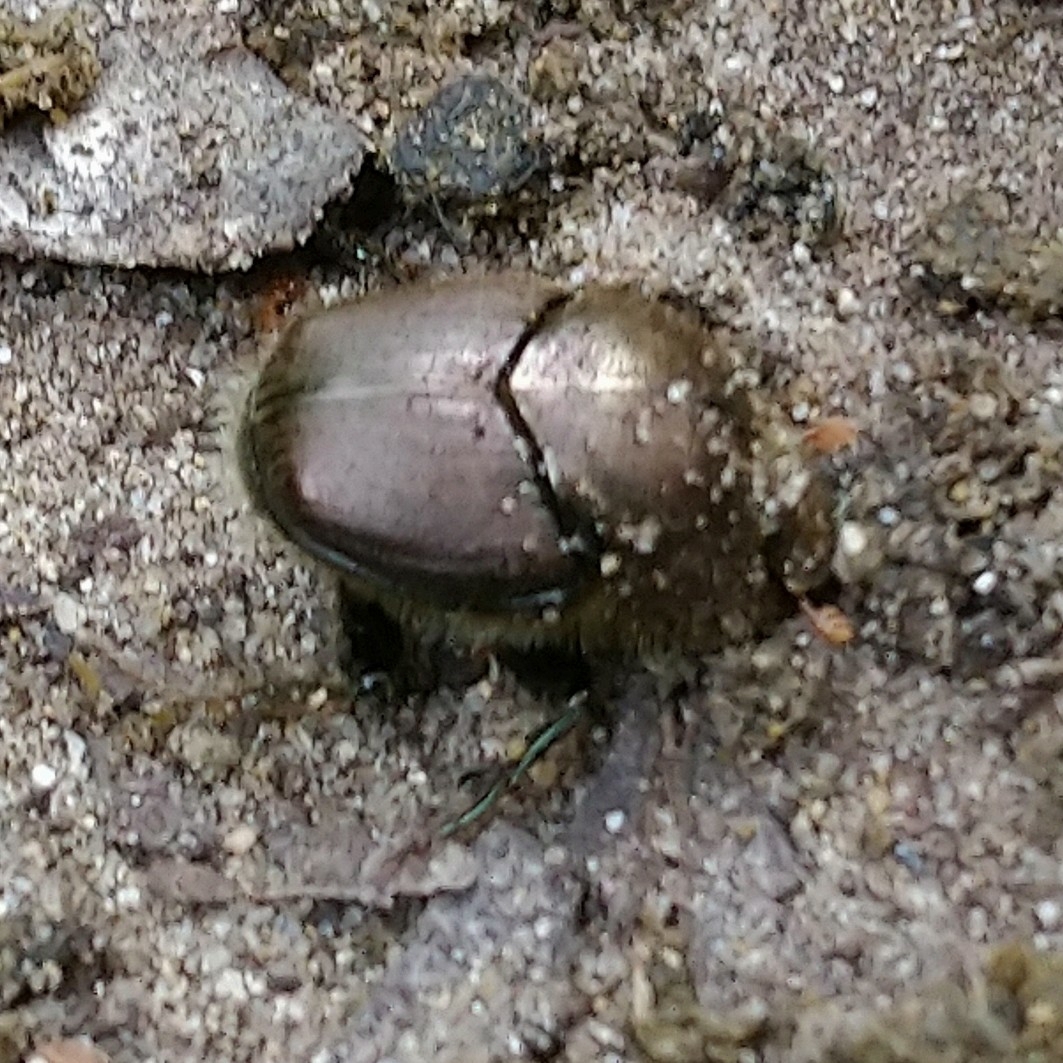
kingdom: Animalia
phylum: Arthropoda
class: Insecta
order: Coleoptera
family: Scarabaeidae
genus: Onitis
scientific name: Onitis minutus
